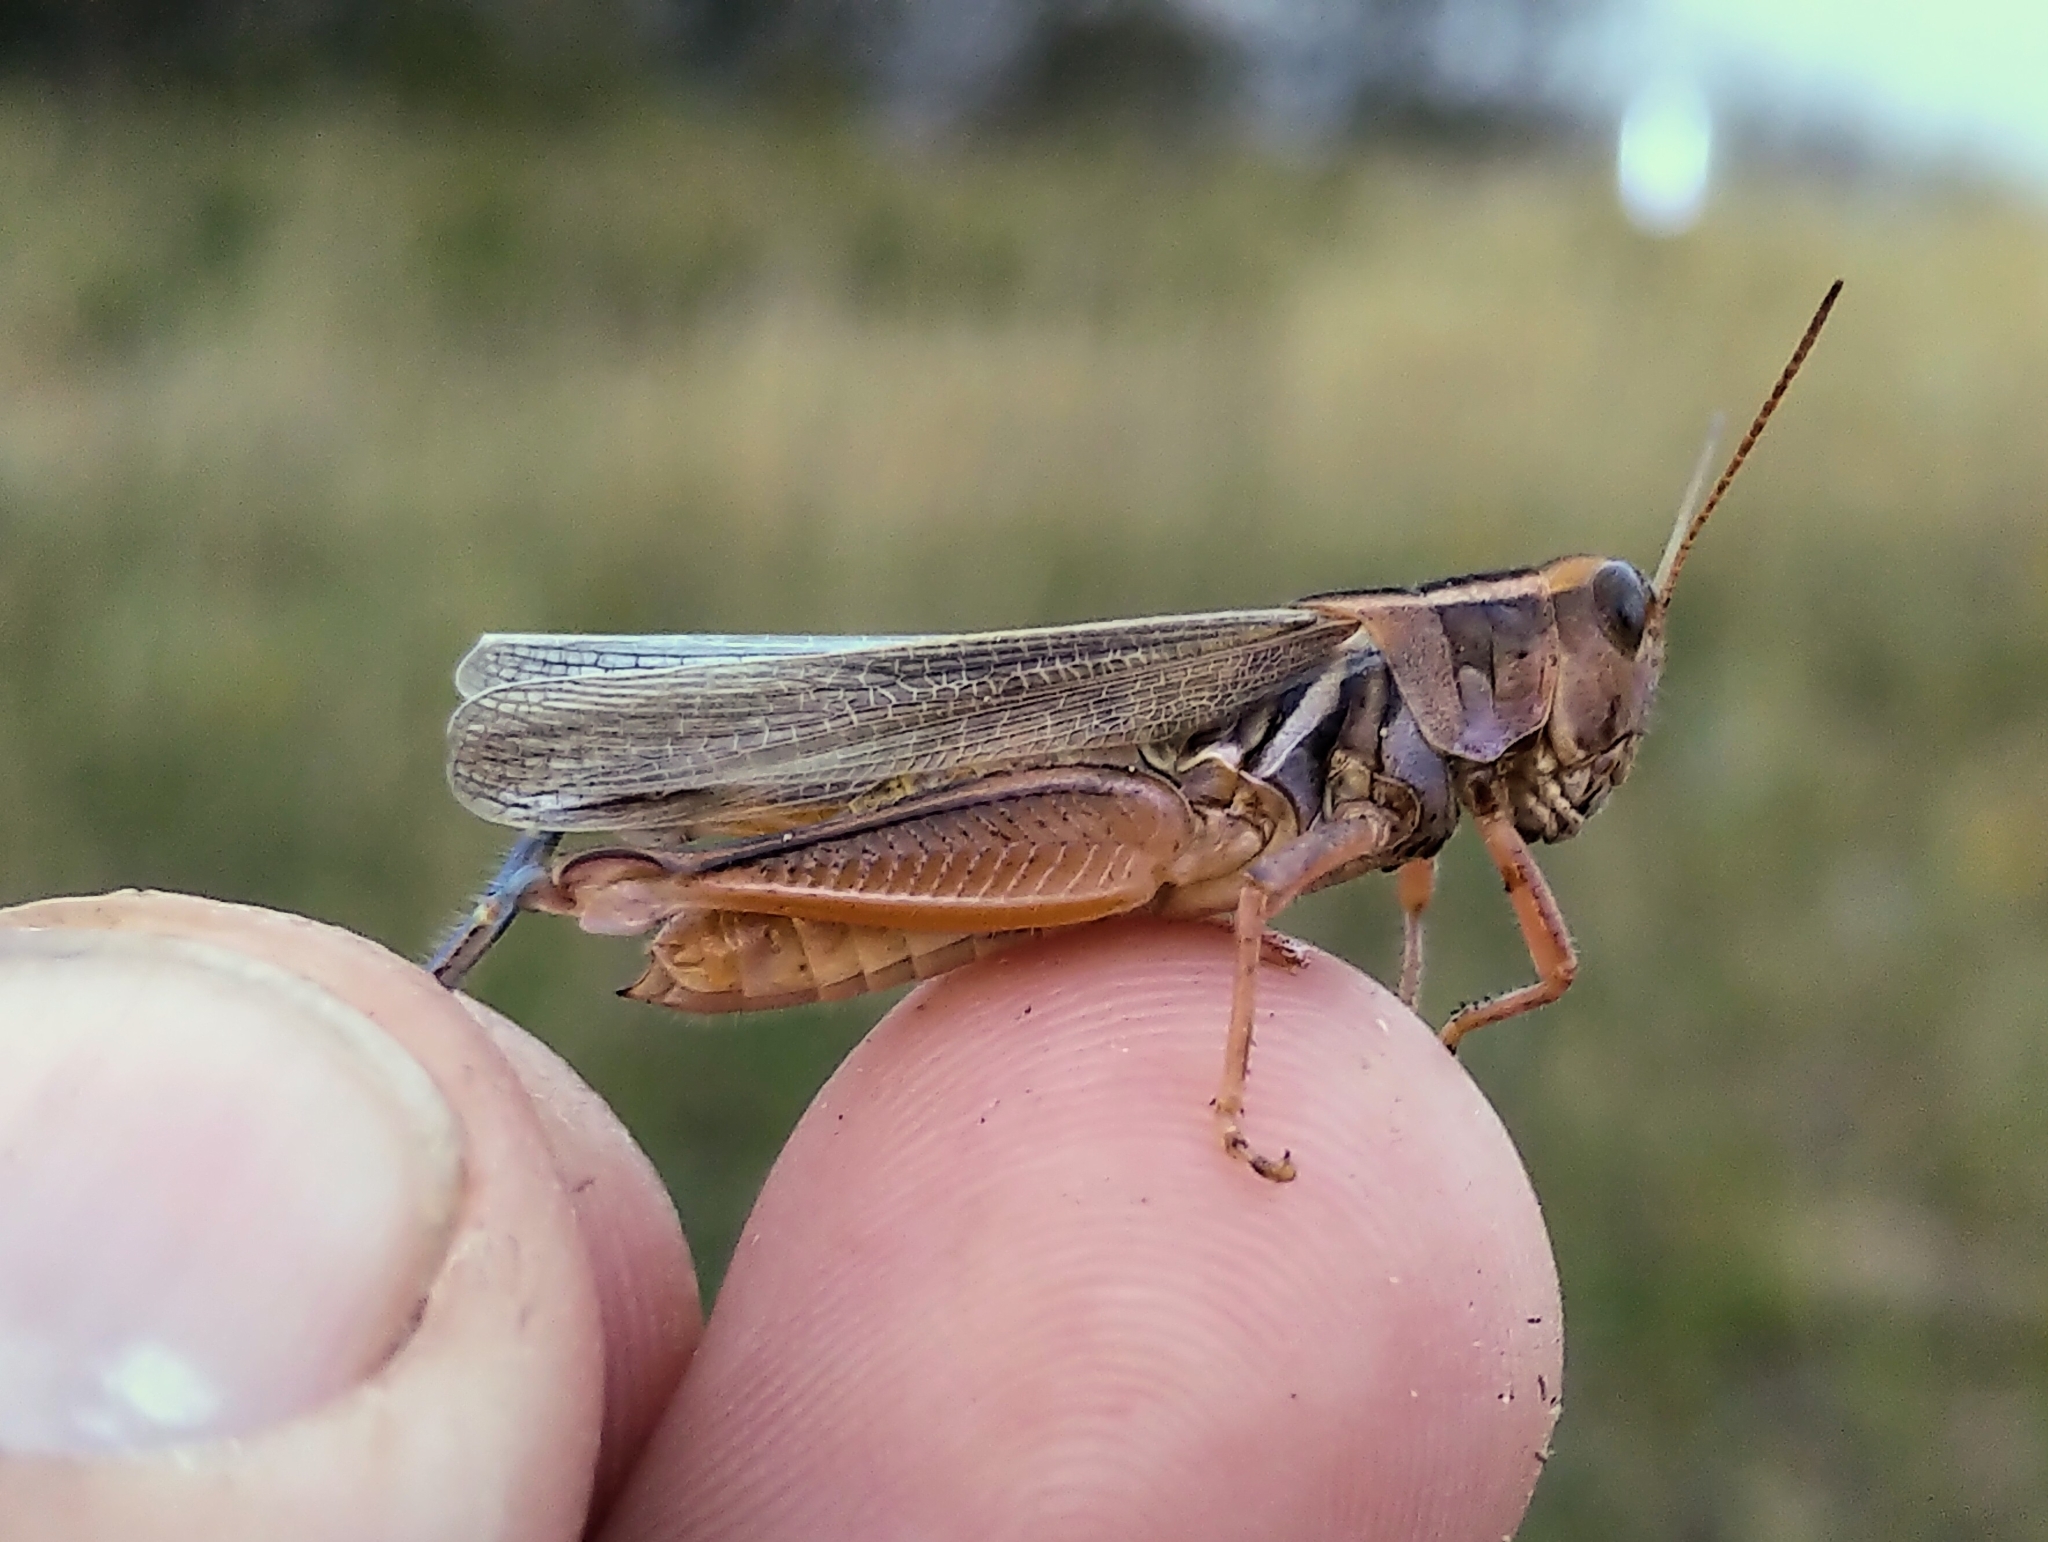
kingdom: Animalia
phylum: Arthropoda
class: Insecta
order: Orthoptera
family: Acrididae
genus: Melanoplus
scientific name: Melanoplus packardii
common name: Packard's grasshopper
